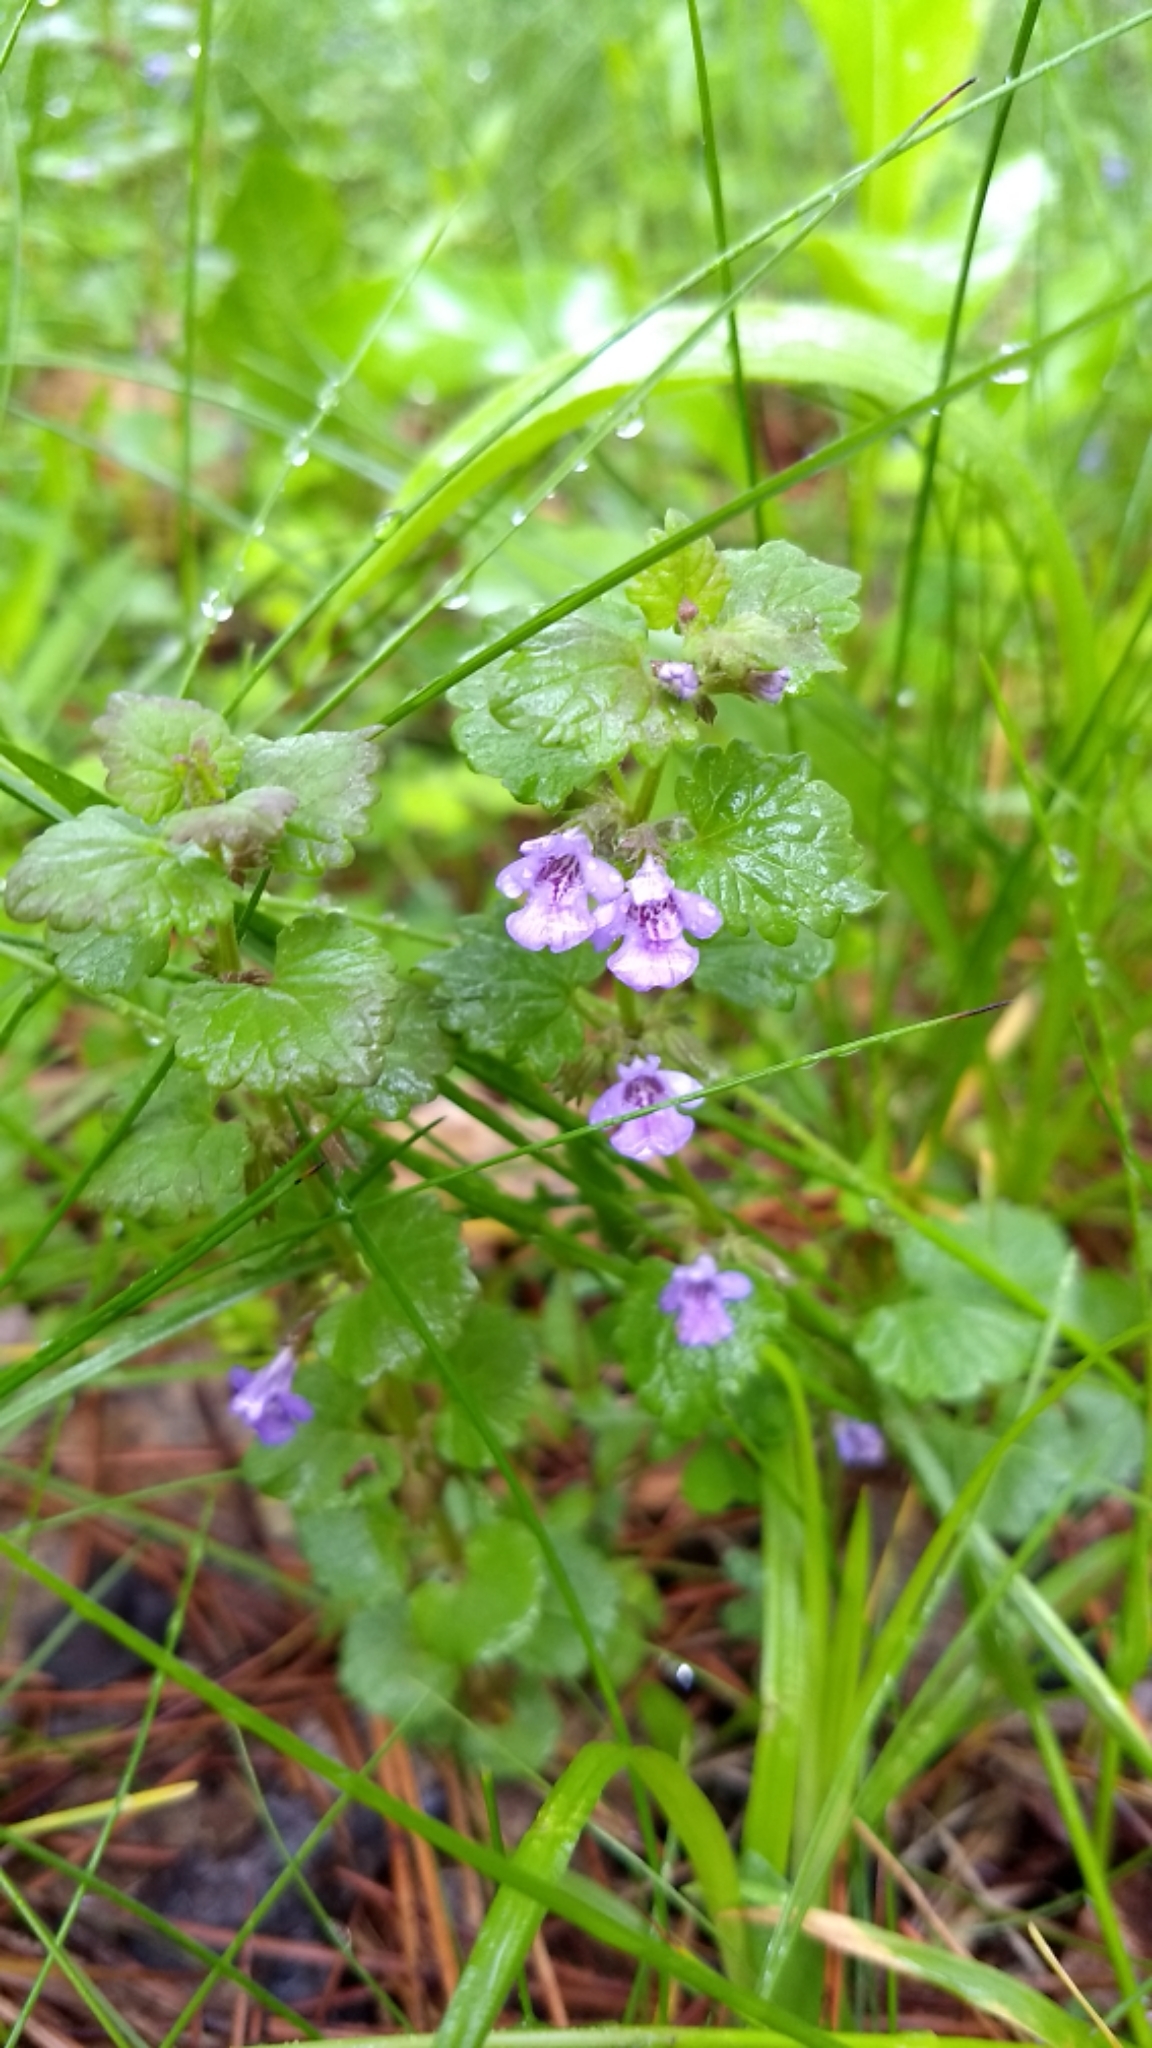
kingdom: Plantae
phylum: Tracheophyta
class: Magnoliopsida
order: Lamiales
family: Lamiaceae
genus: Glechoma
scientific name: Glechoma hederacea
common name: Ground ivy
